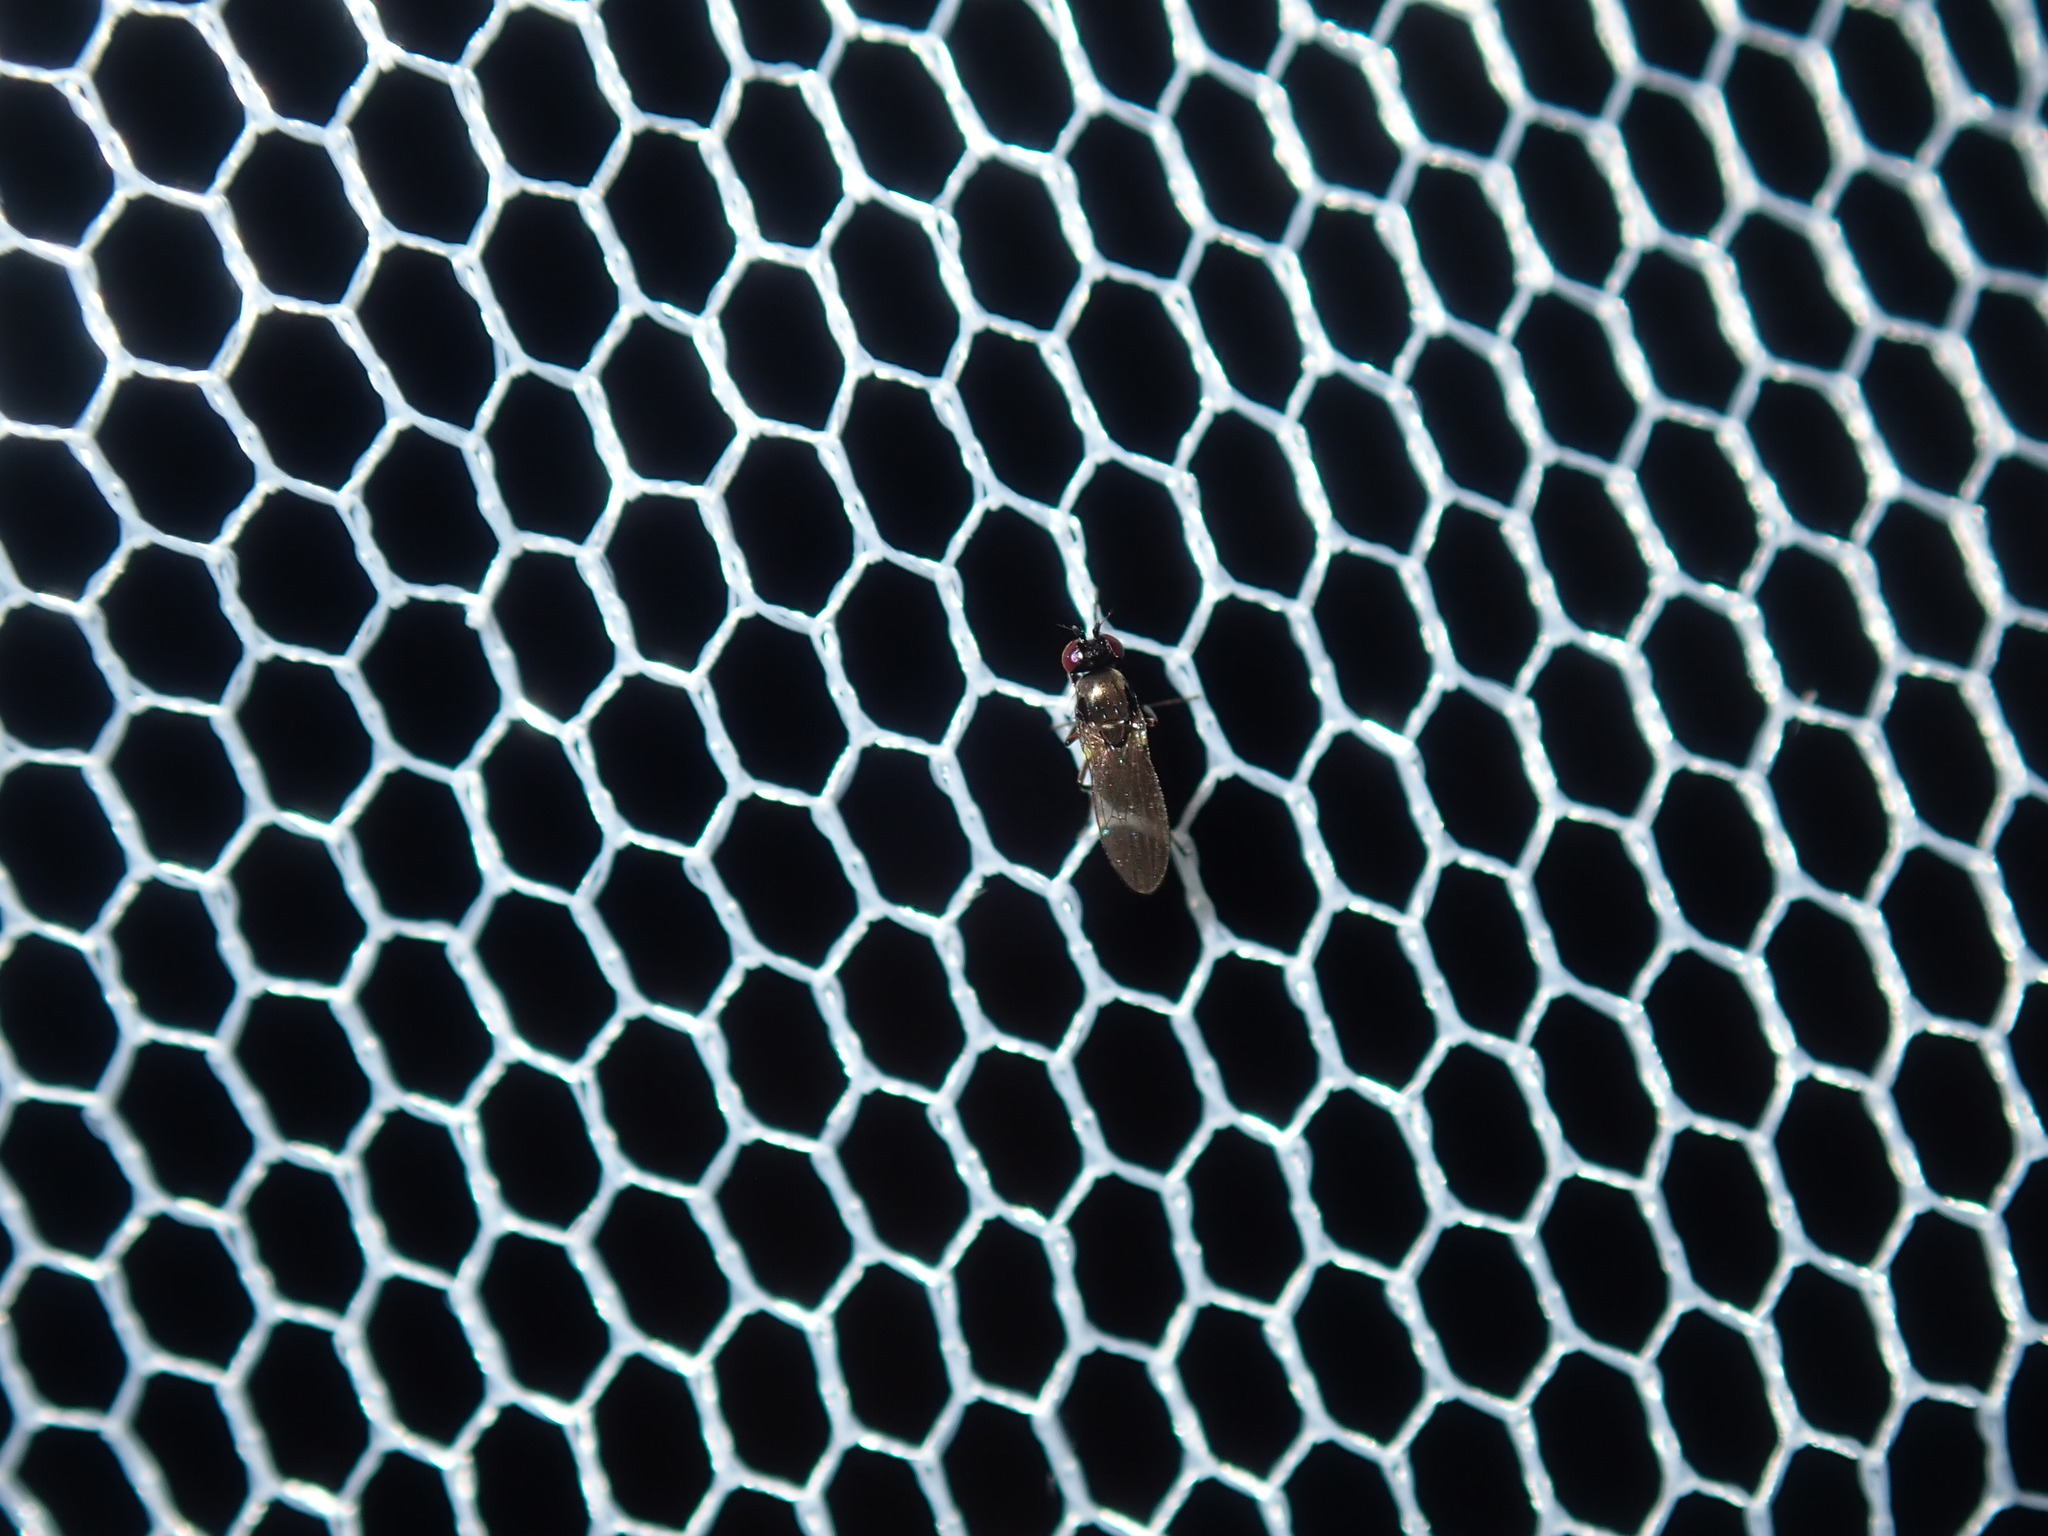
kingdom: Animalia
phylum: Arthropoda
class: Insecta
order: Diptera
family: Ephydridae
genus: Hydrellia
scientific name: Hydrellia tritici
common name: Shore fly
